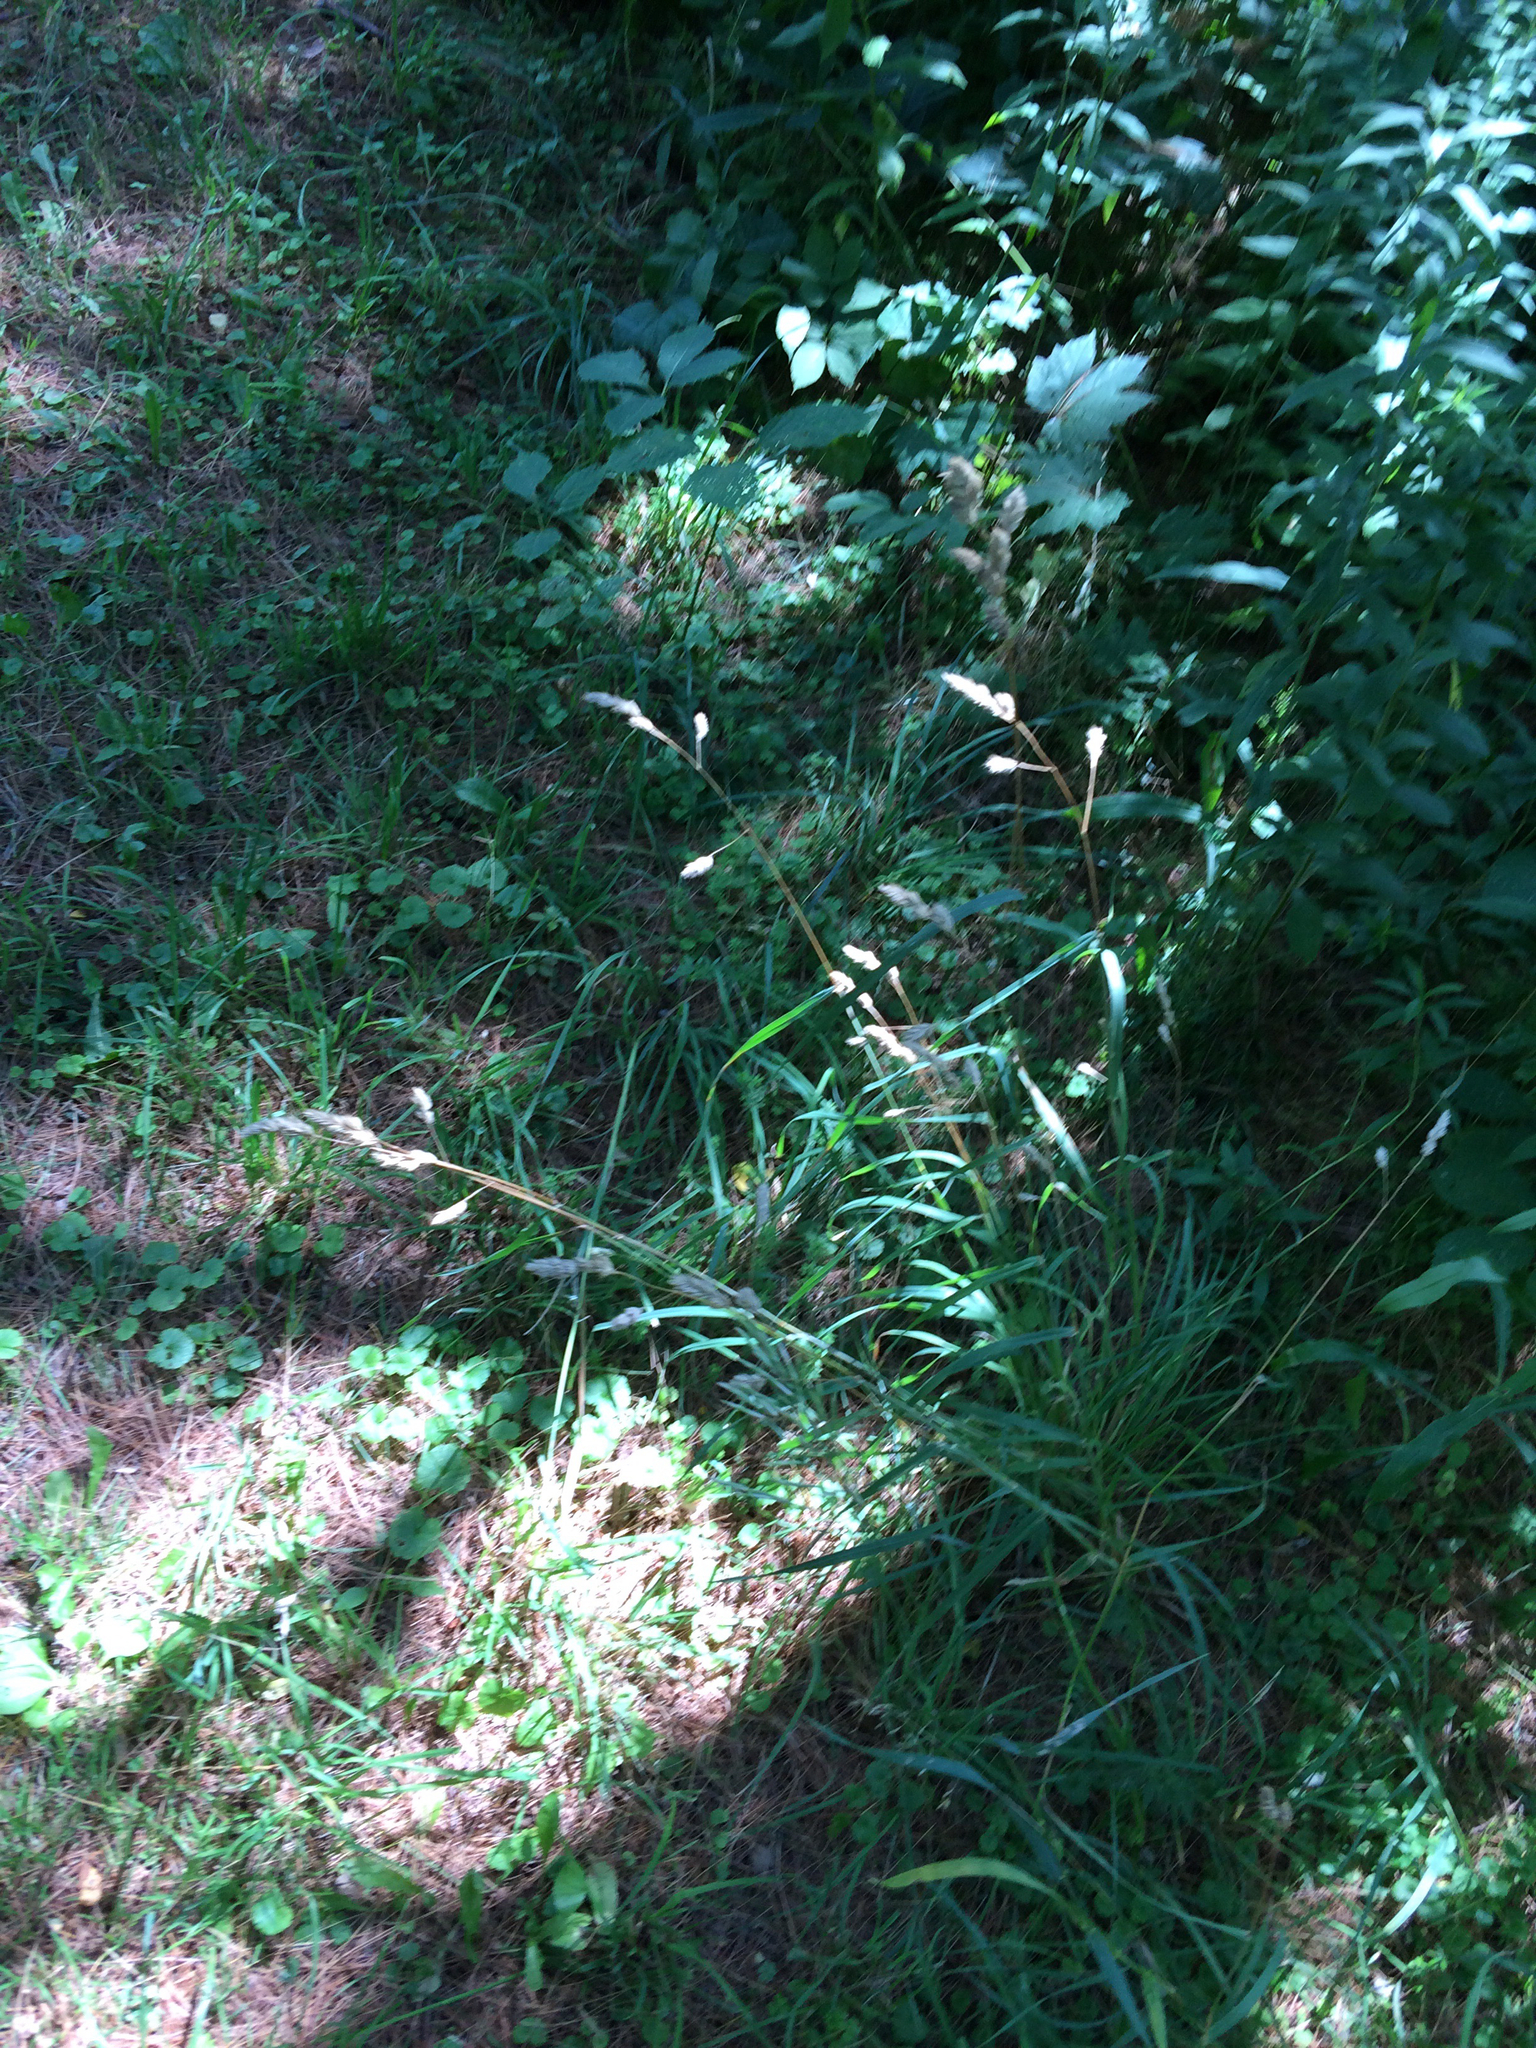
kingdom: Plantae
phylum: Tracheophyta
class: Liliopsida
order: Poales
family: Poaceae
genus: Dactylis
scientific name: Dactylis glomerata
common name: Orchardgrass
